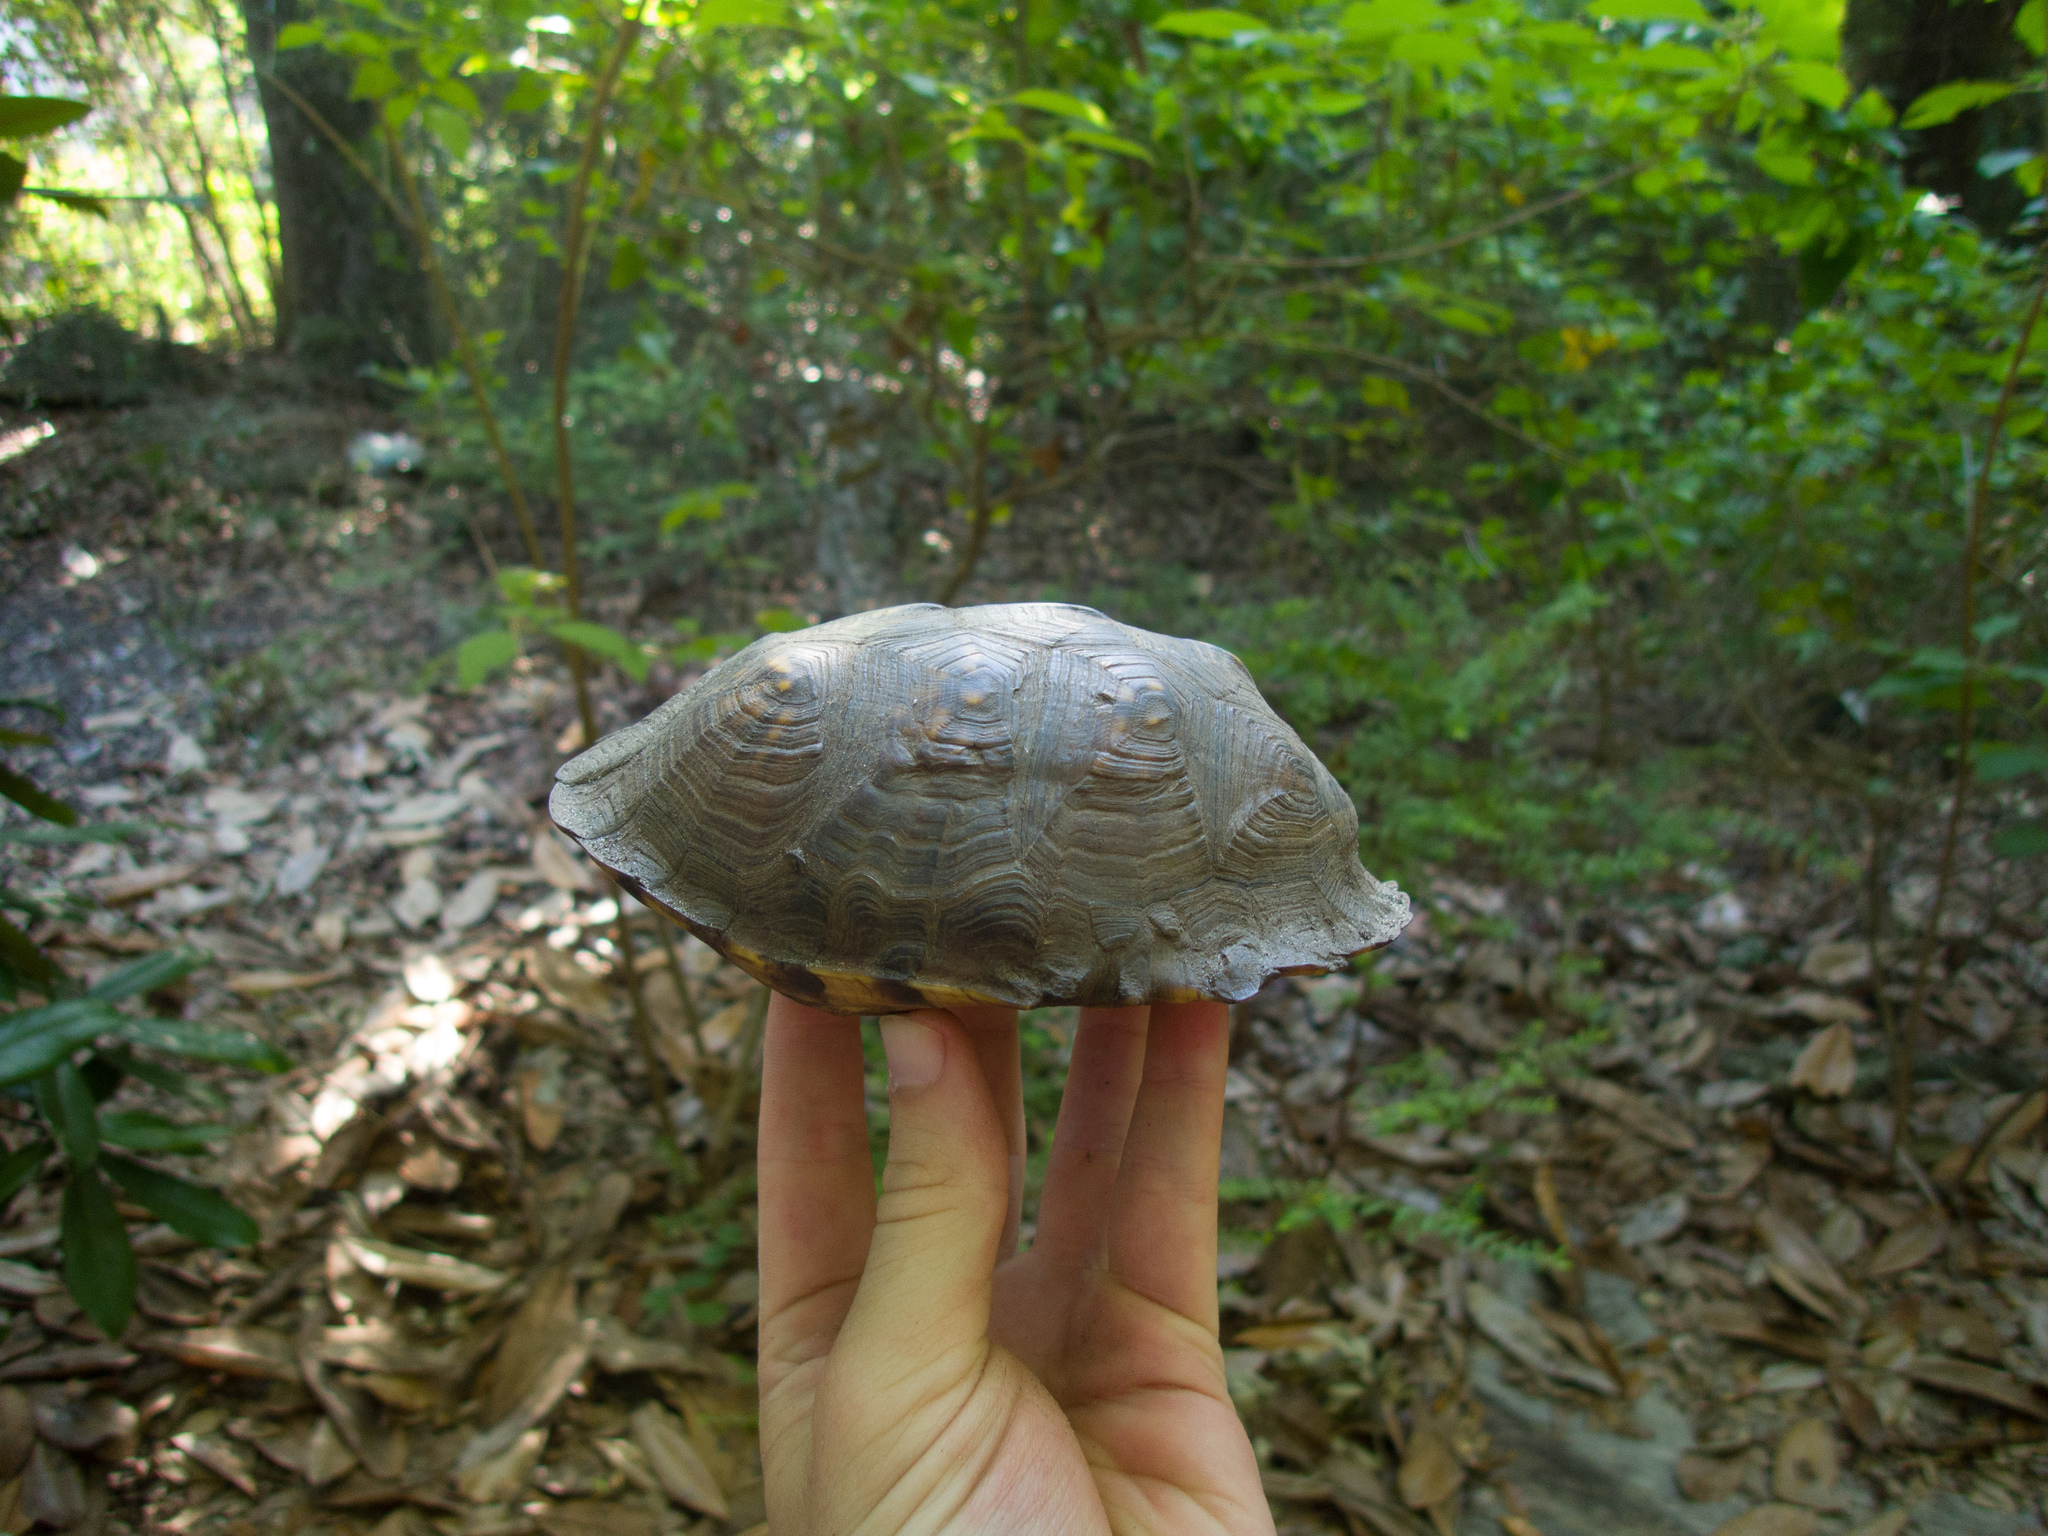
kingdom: Animalia
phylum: Chordata
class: Testudines
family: Emydidae
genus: Terrapene
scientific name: Terrapene carolina
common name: Common box turtle
